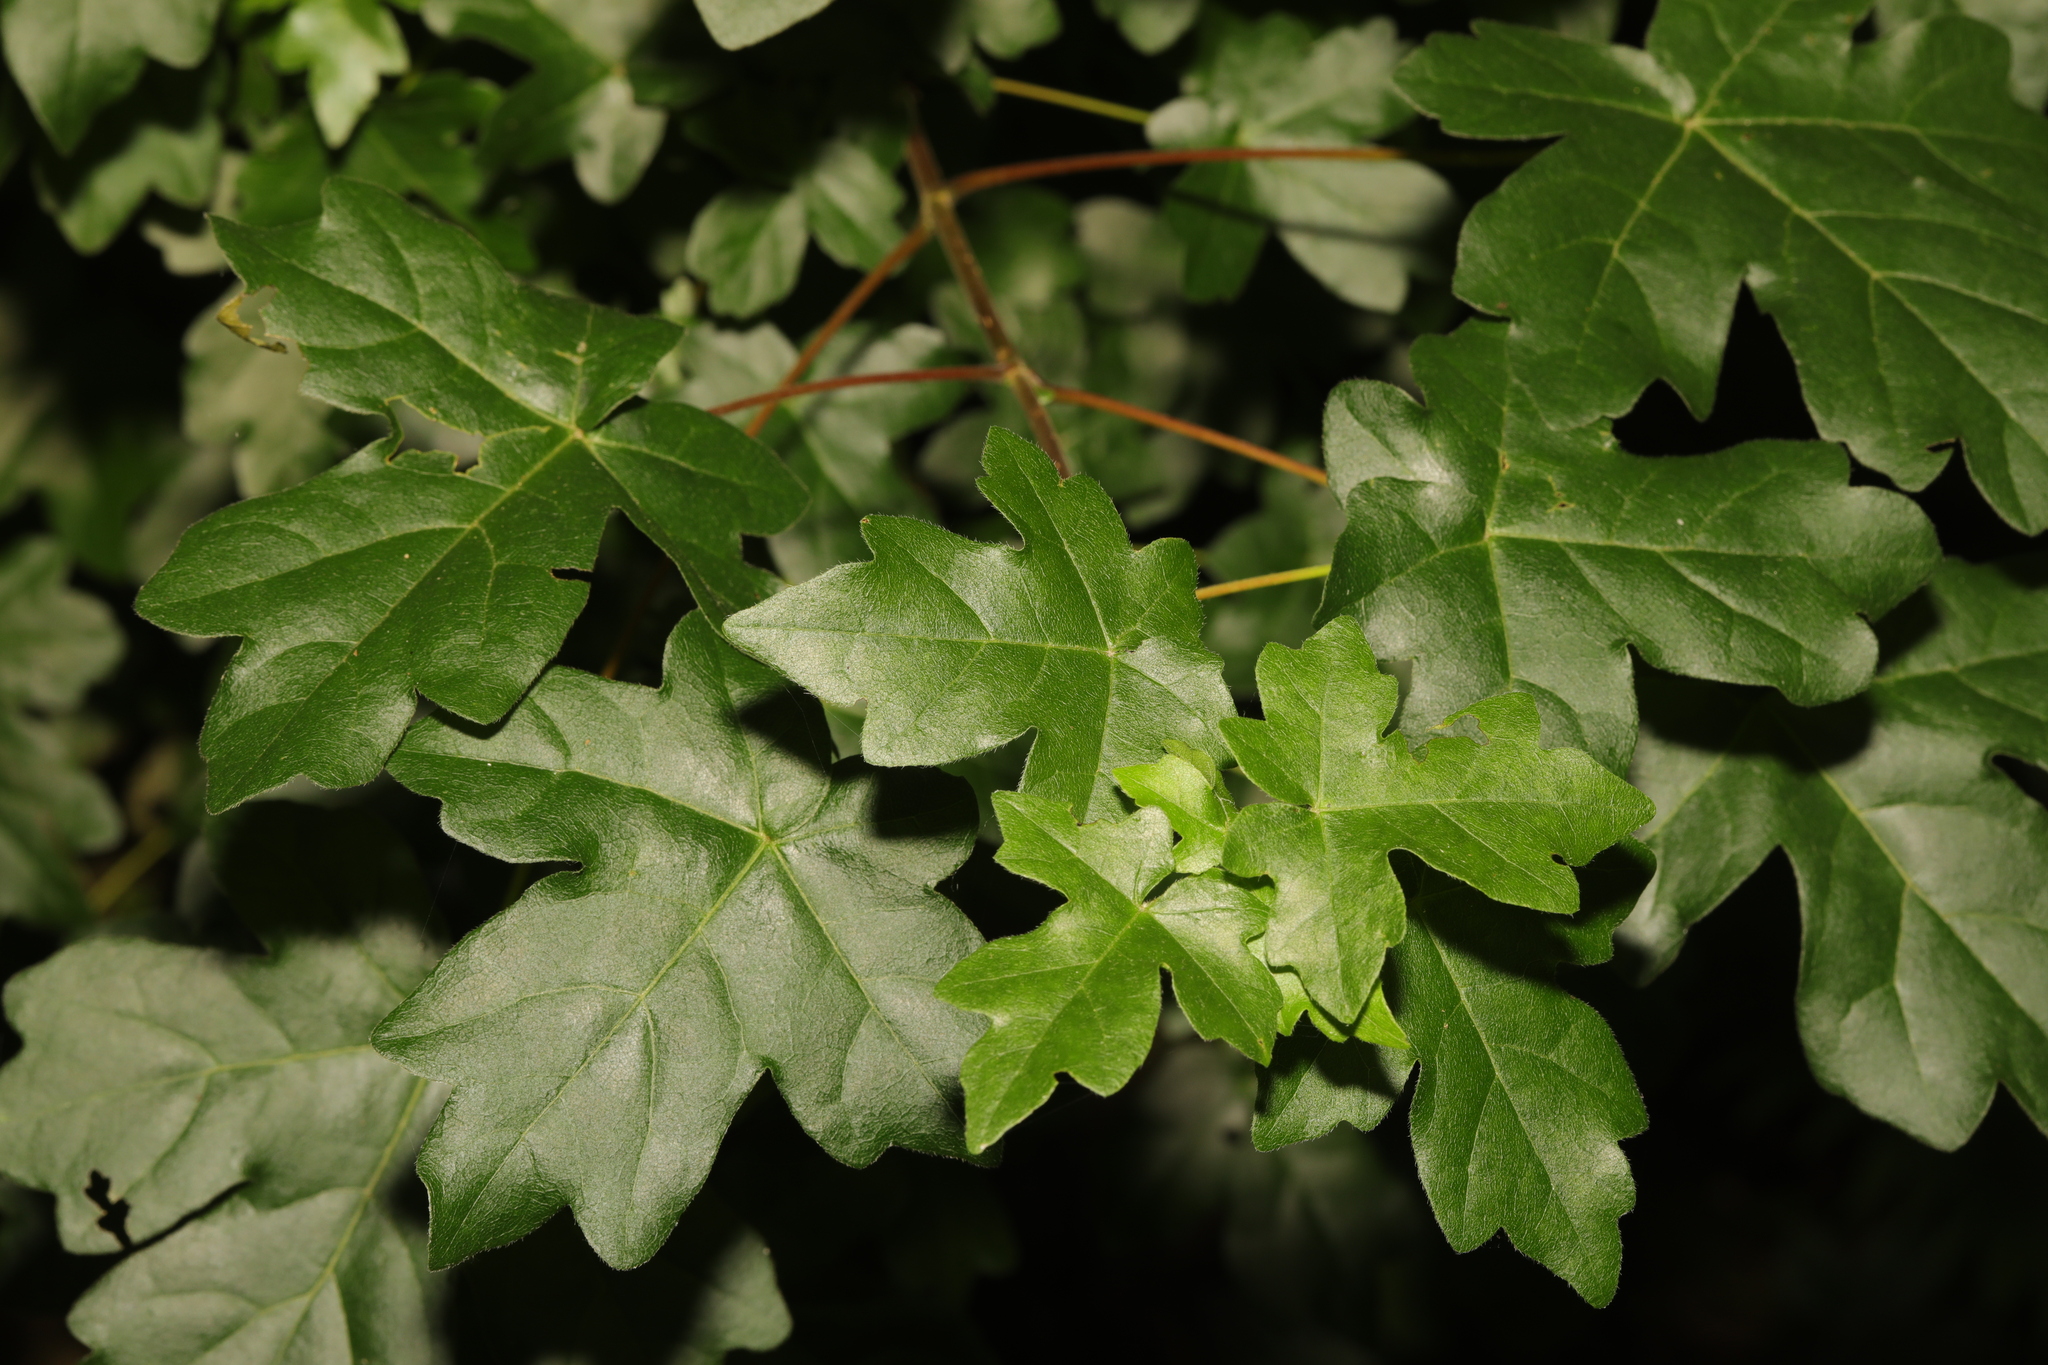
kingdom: Plantae
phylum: Tracheophyta
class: Magnoliopsida
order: Sapindales
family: Sapindaceae
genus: Acer
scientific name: Acer campestre
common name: Field maple
